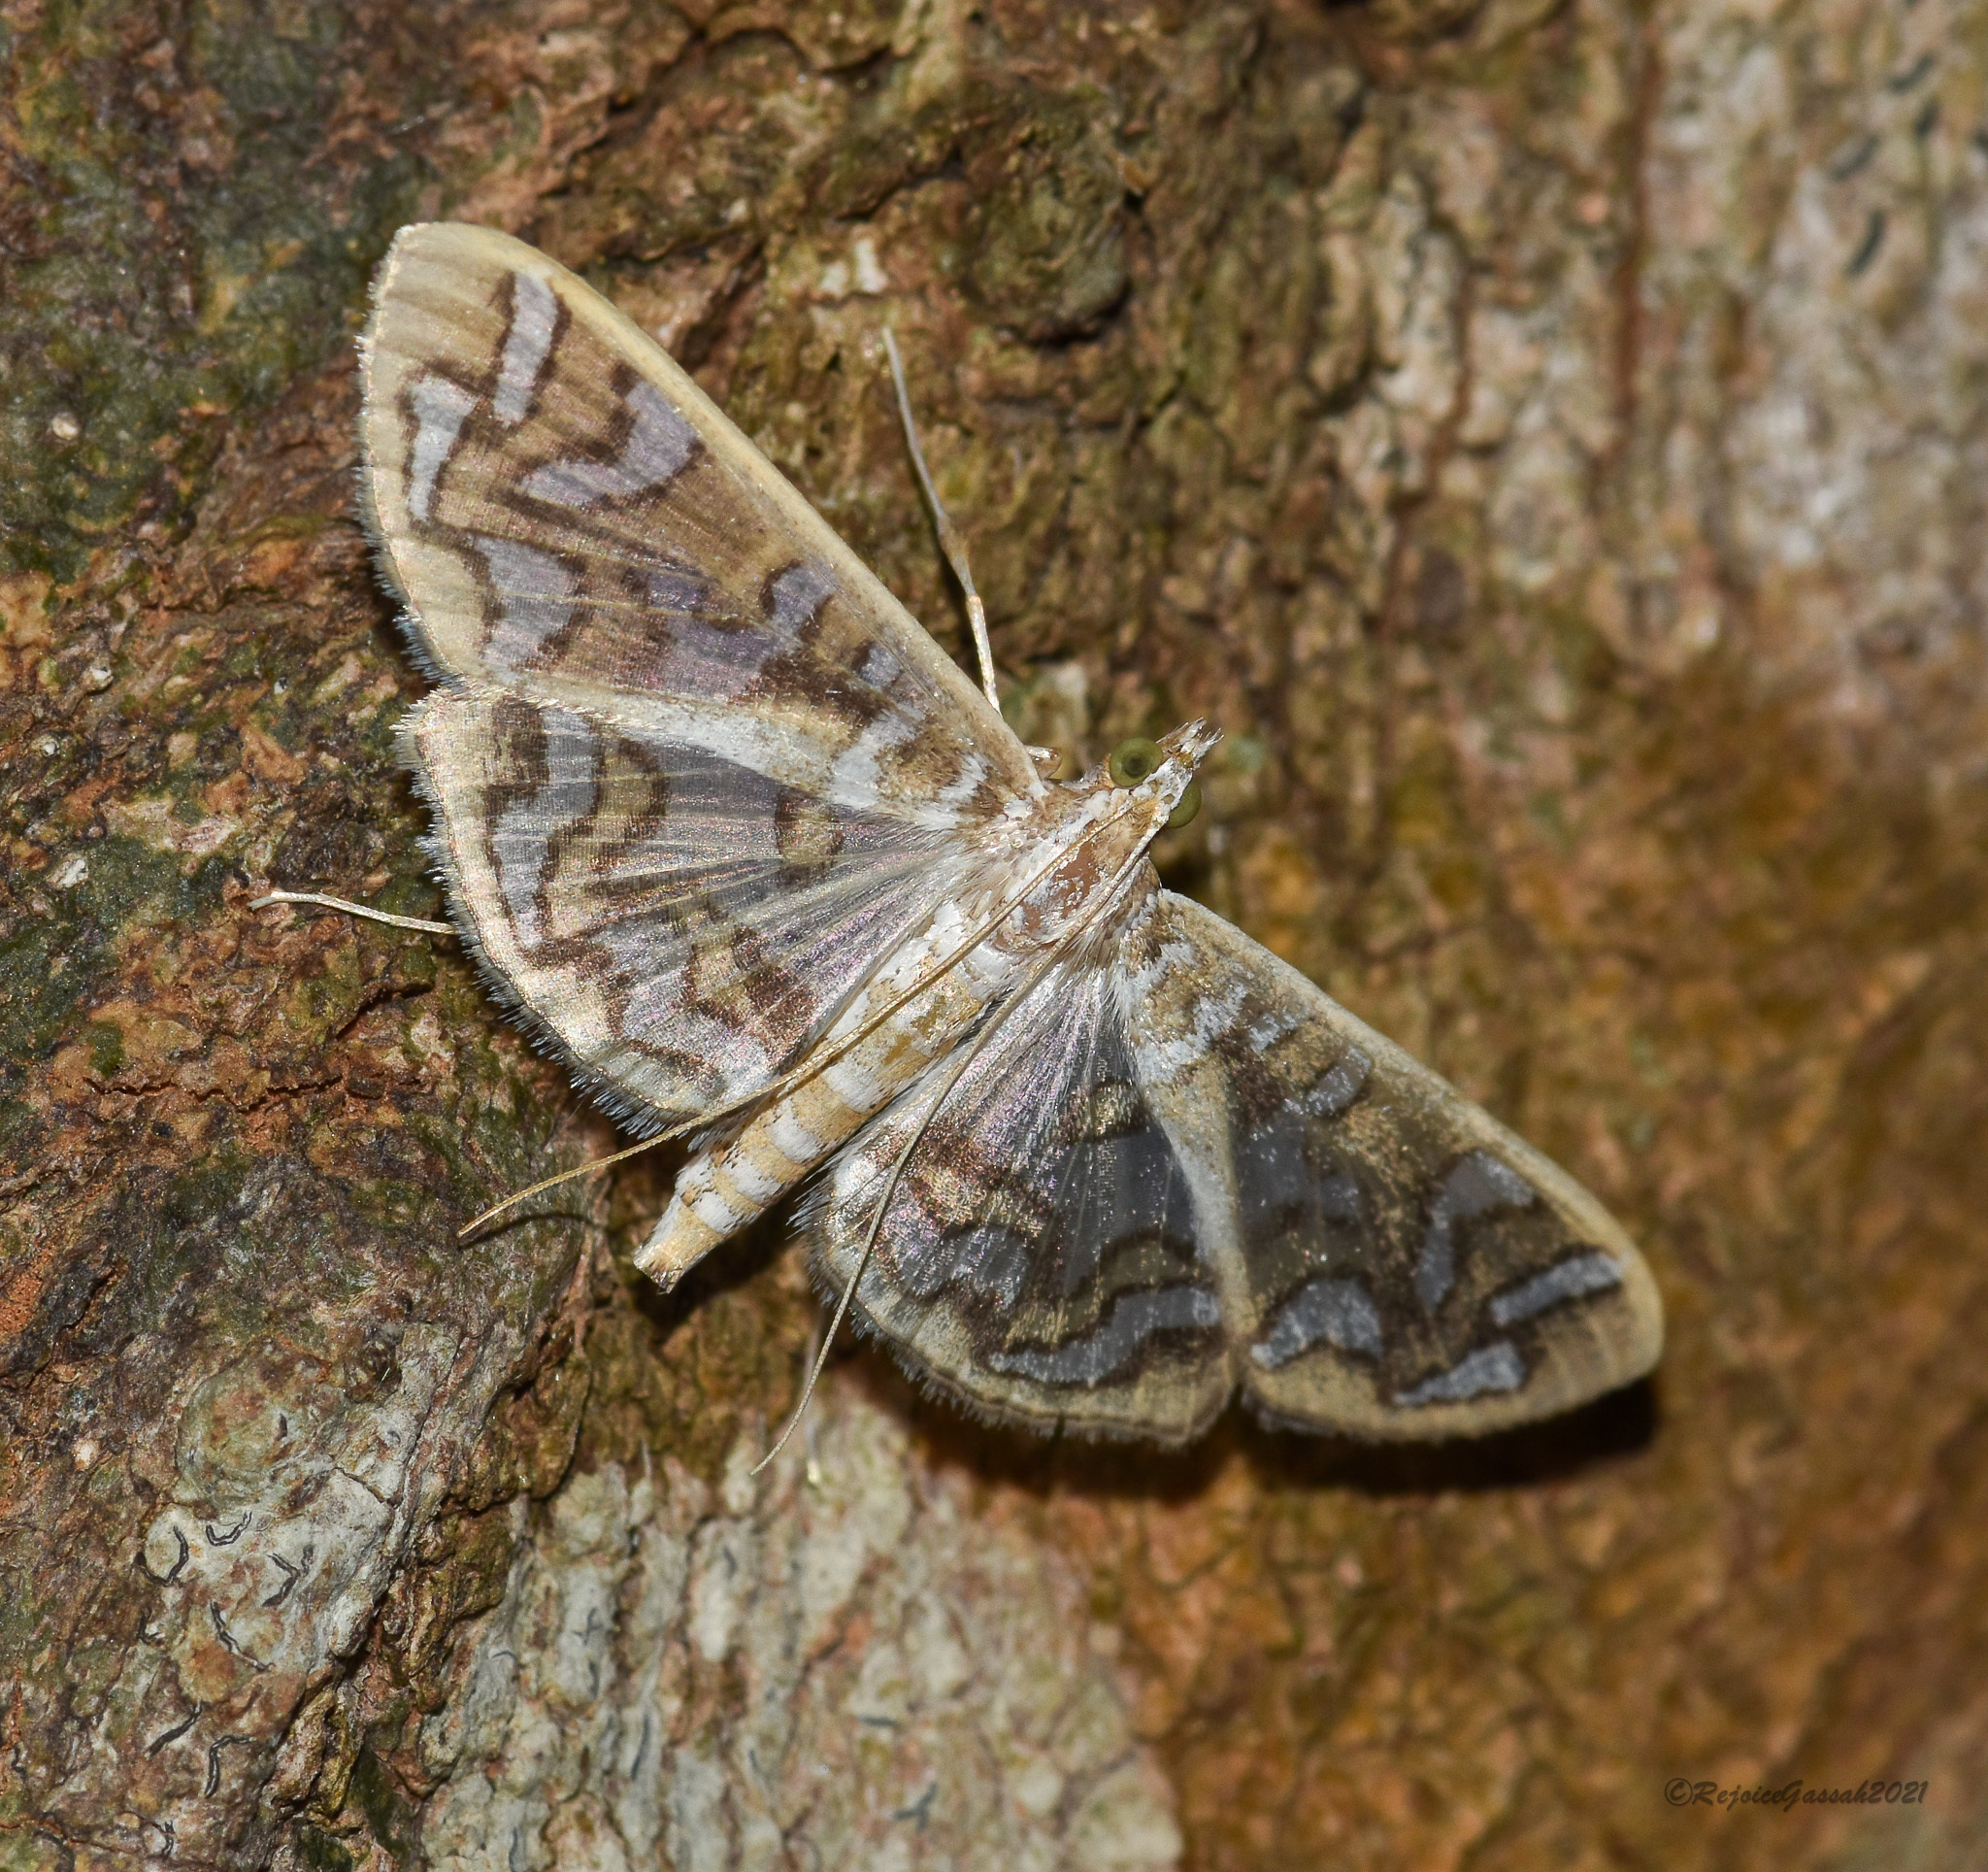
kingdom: Animalia
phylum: Arthropoda
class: Insecta
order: Lepidoptera
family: Crambidae
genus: Nausinoe
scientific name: Nausinoe perspectata
